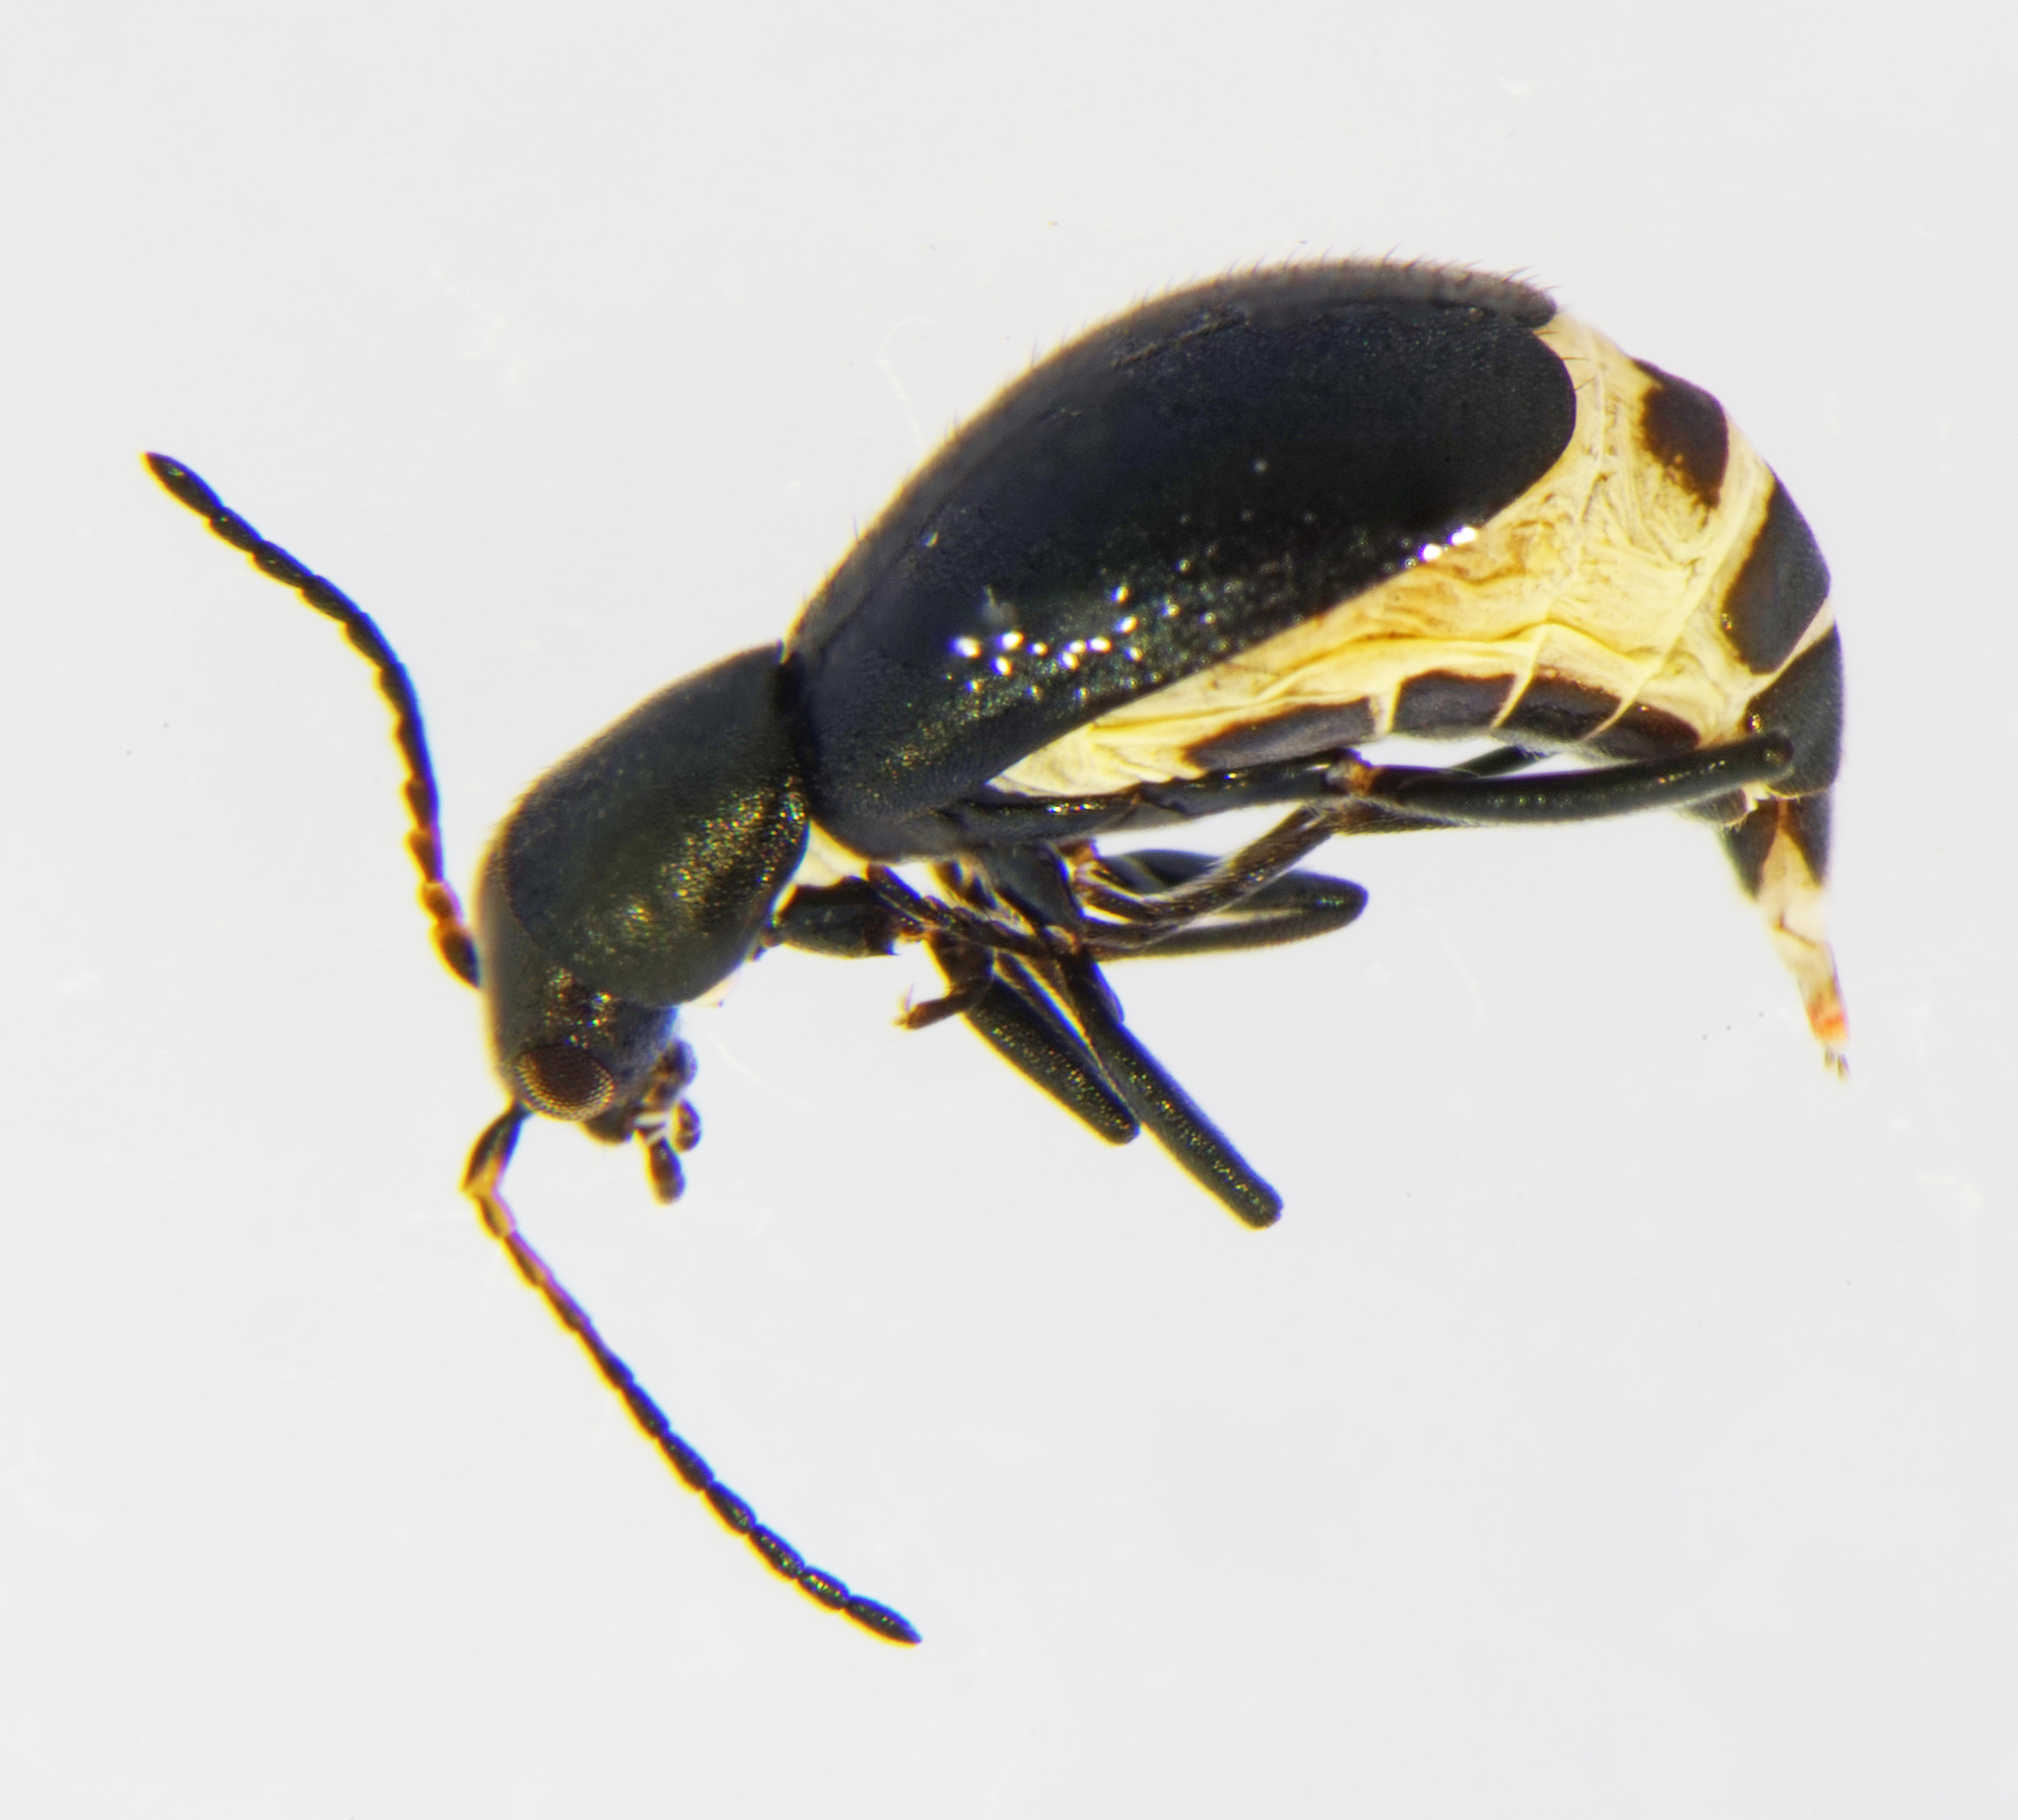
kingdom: Animalia
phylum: Arthropoda
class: Insecta
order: Coleoptera
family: Malachiidae
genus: Charopus
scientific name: Charopus concolor
